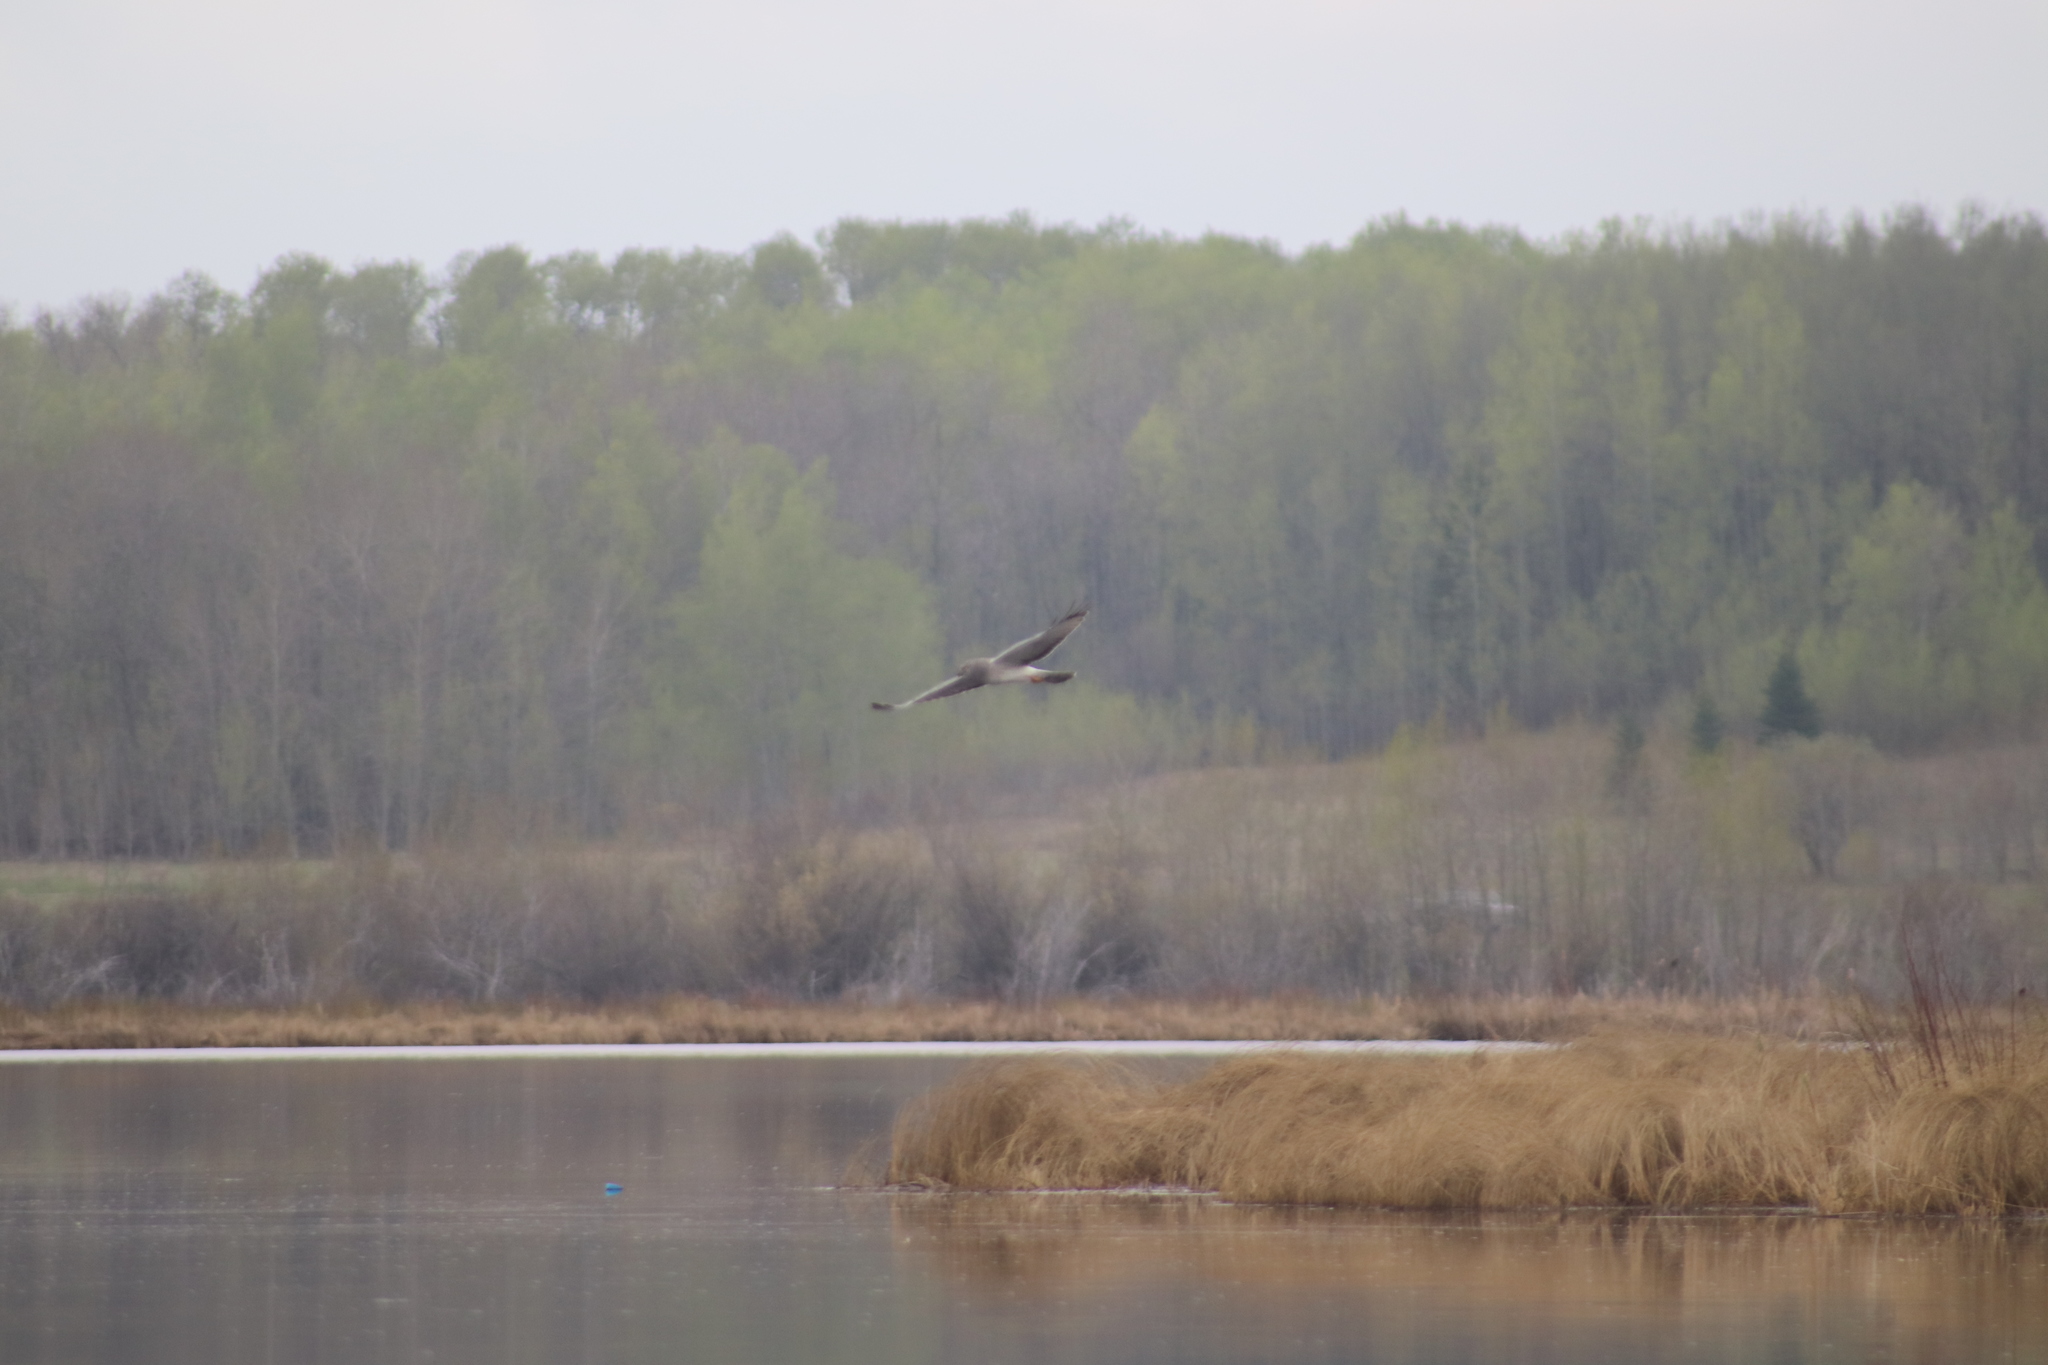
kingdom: Animalia
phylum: Chordata
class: Aves
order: Accipitriformes
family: Accipitridae
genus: Circus
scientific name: Circus cyaneus
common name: Hen harrier
